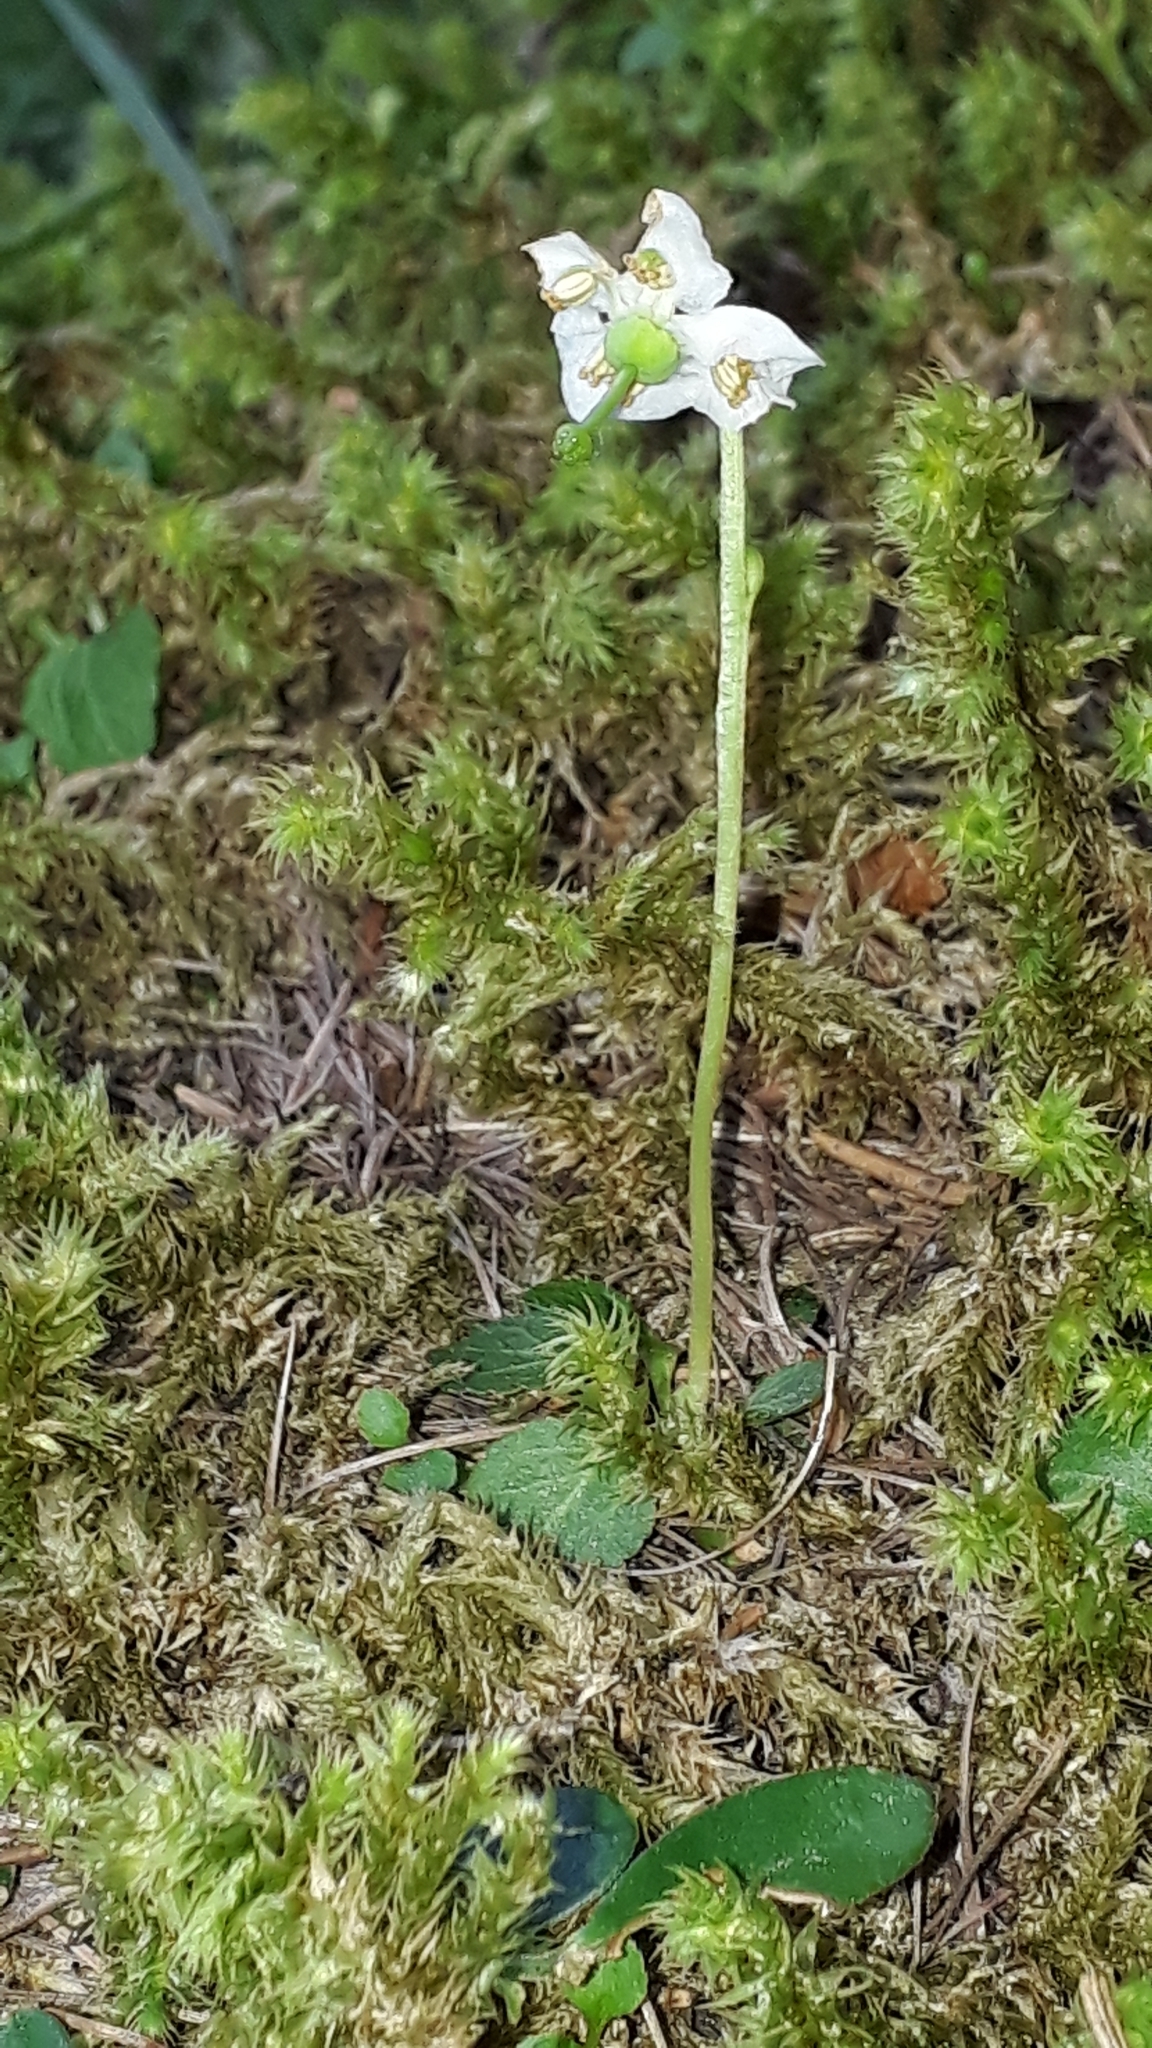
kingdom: Plantae
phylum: Tracheophyta
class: Magnoliopsida
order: Ericales
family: Ericaceae
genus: Moneses
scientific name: Moneses uniflora
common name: One-flowered wintergreen
